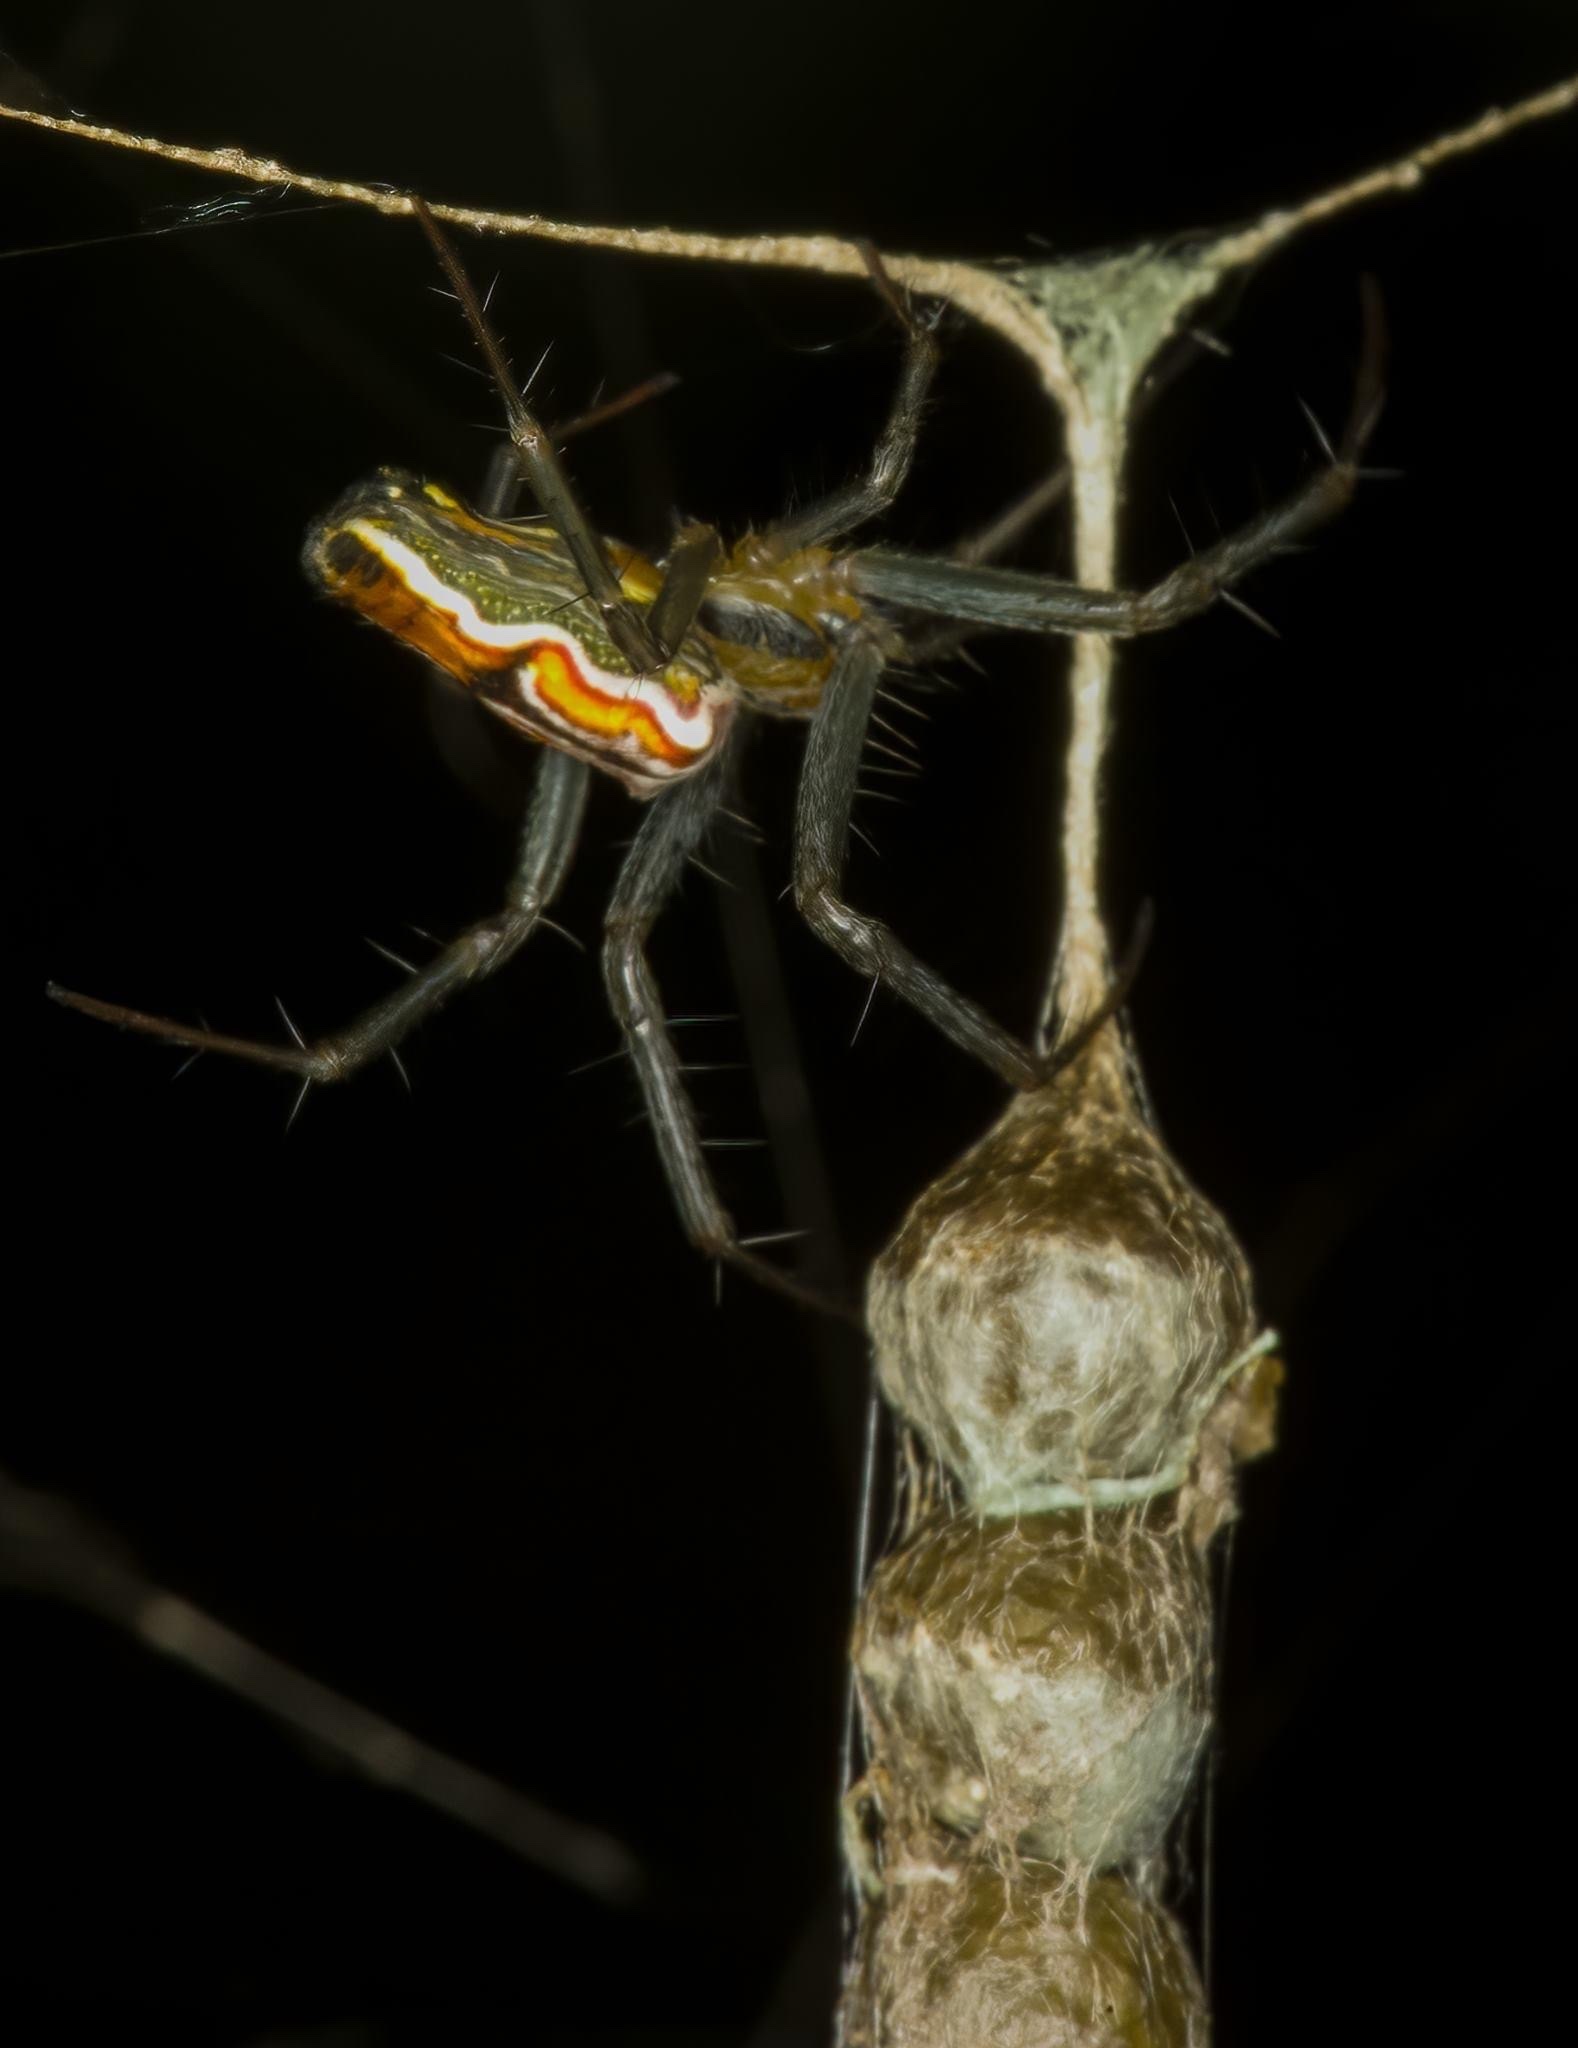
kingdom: Animalia
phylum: Arthropoda
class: Arachnida
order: Araneae
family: Araneidae
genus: Mecynogea
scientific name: Mecynogea lemniscata
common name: Orb weavers
